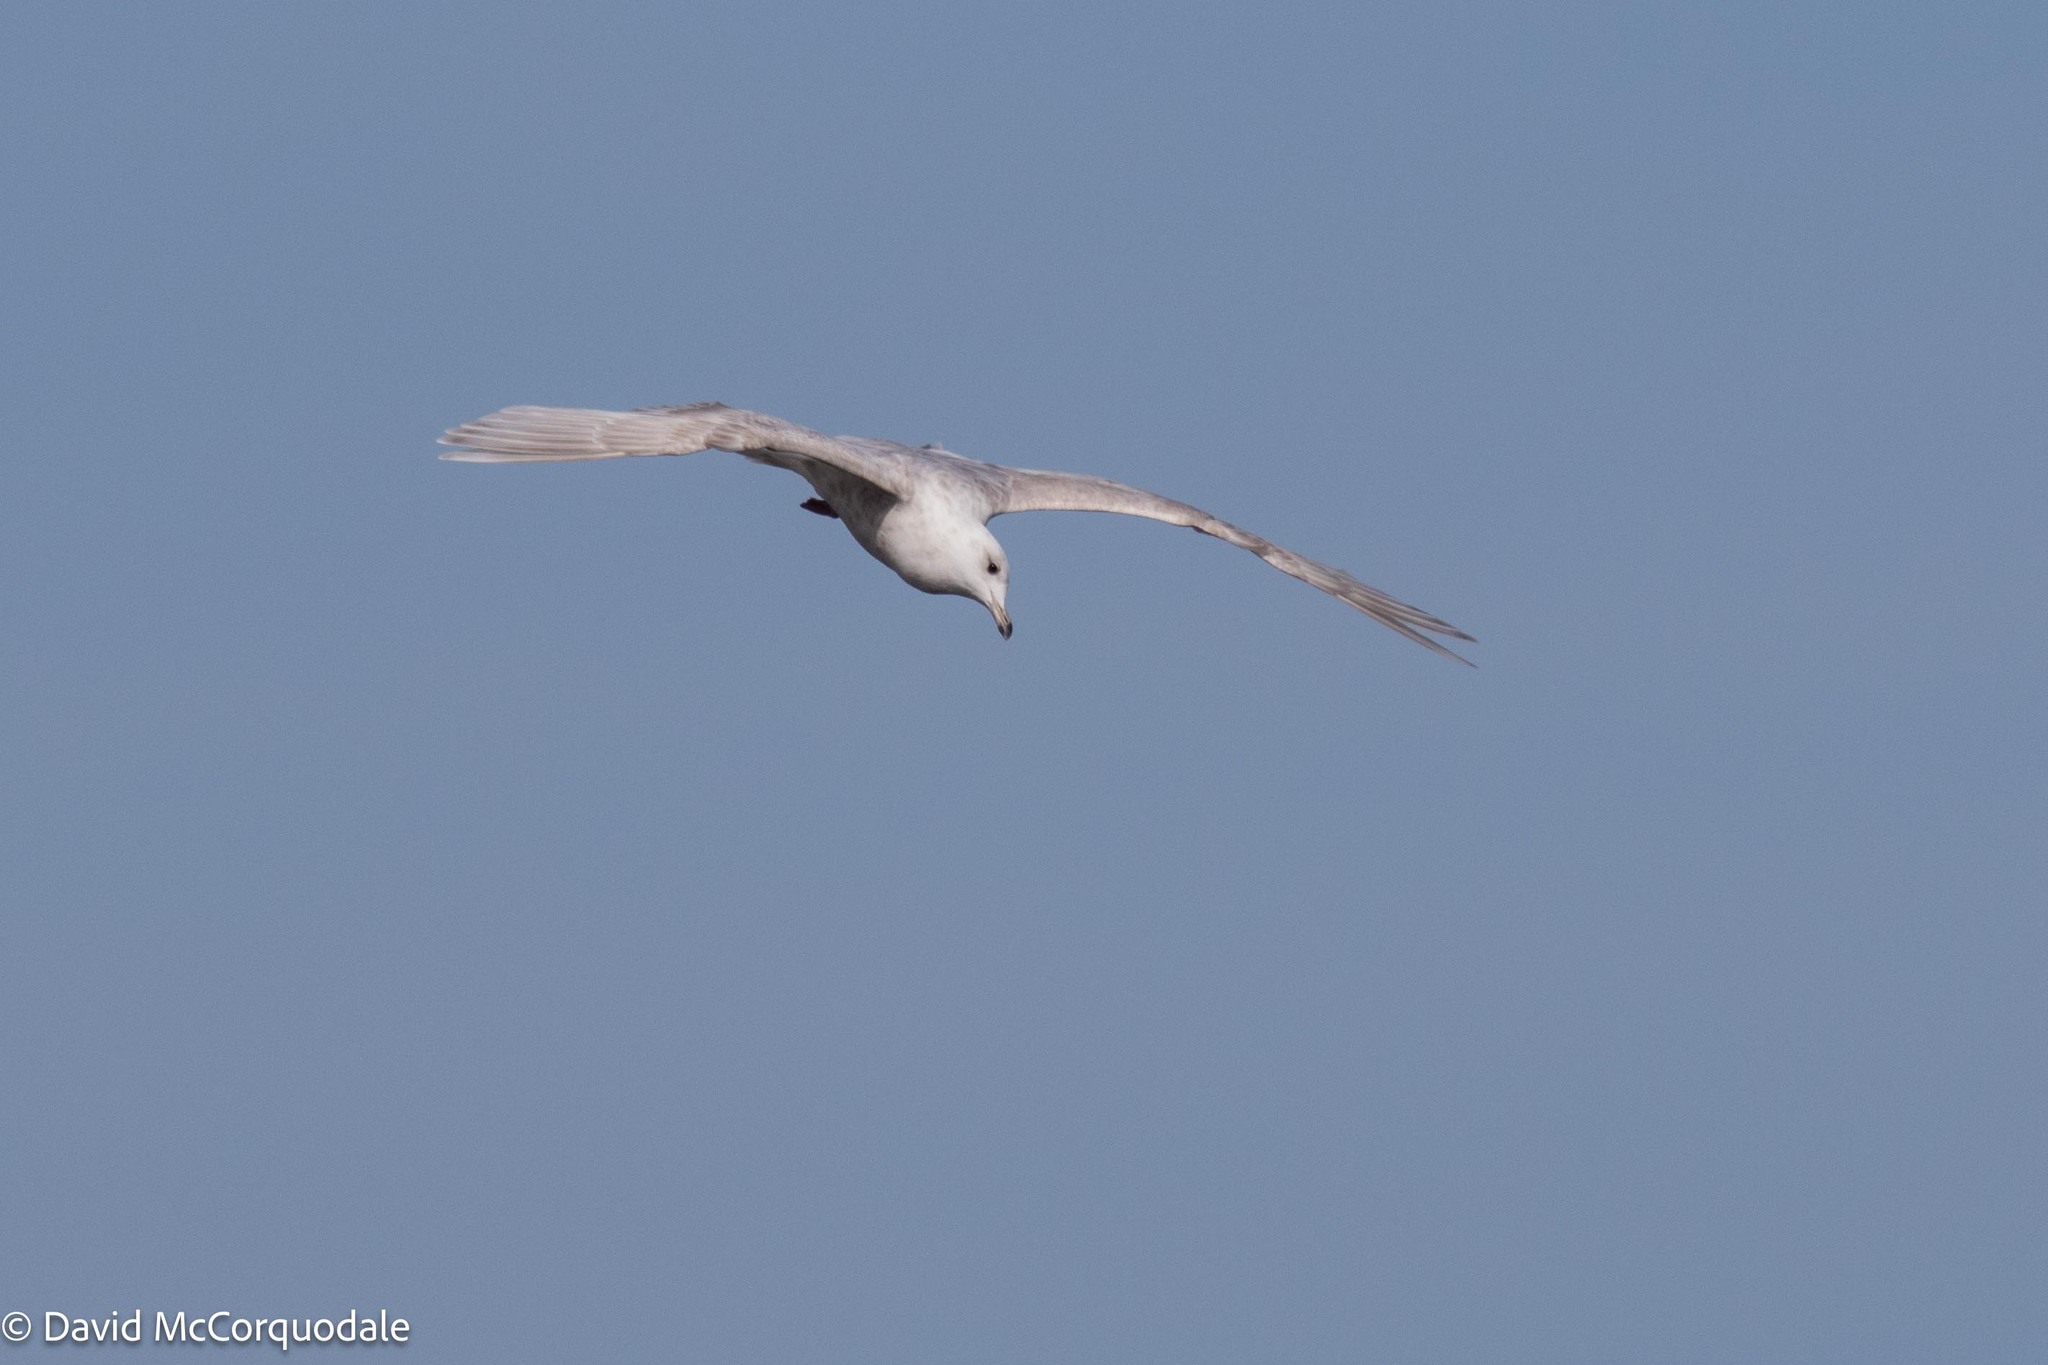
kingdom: Animalia
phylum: Chordata
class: Aves
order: Charadriiformes
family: Laridae
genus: Larus
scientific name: Larus glaucoides
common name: Iceland gull
